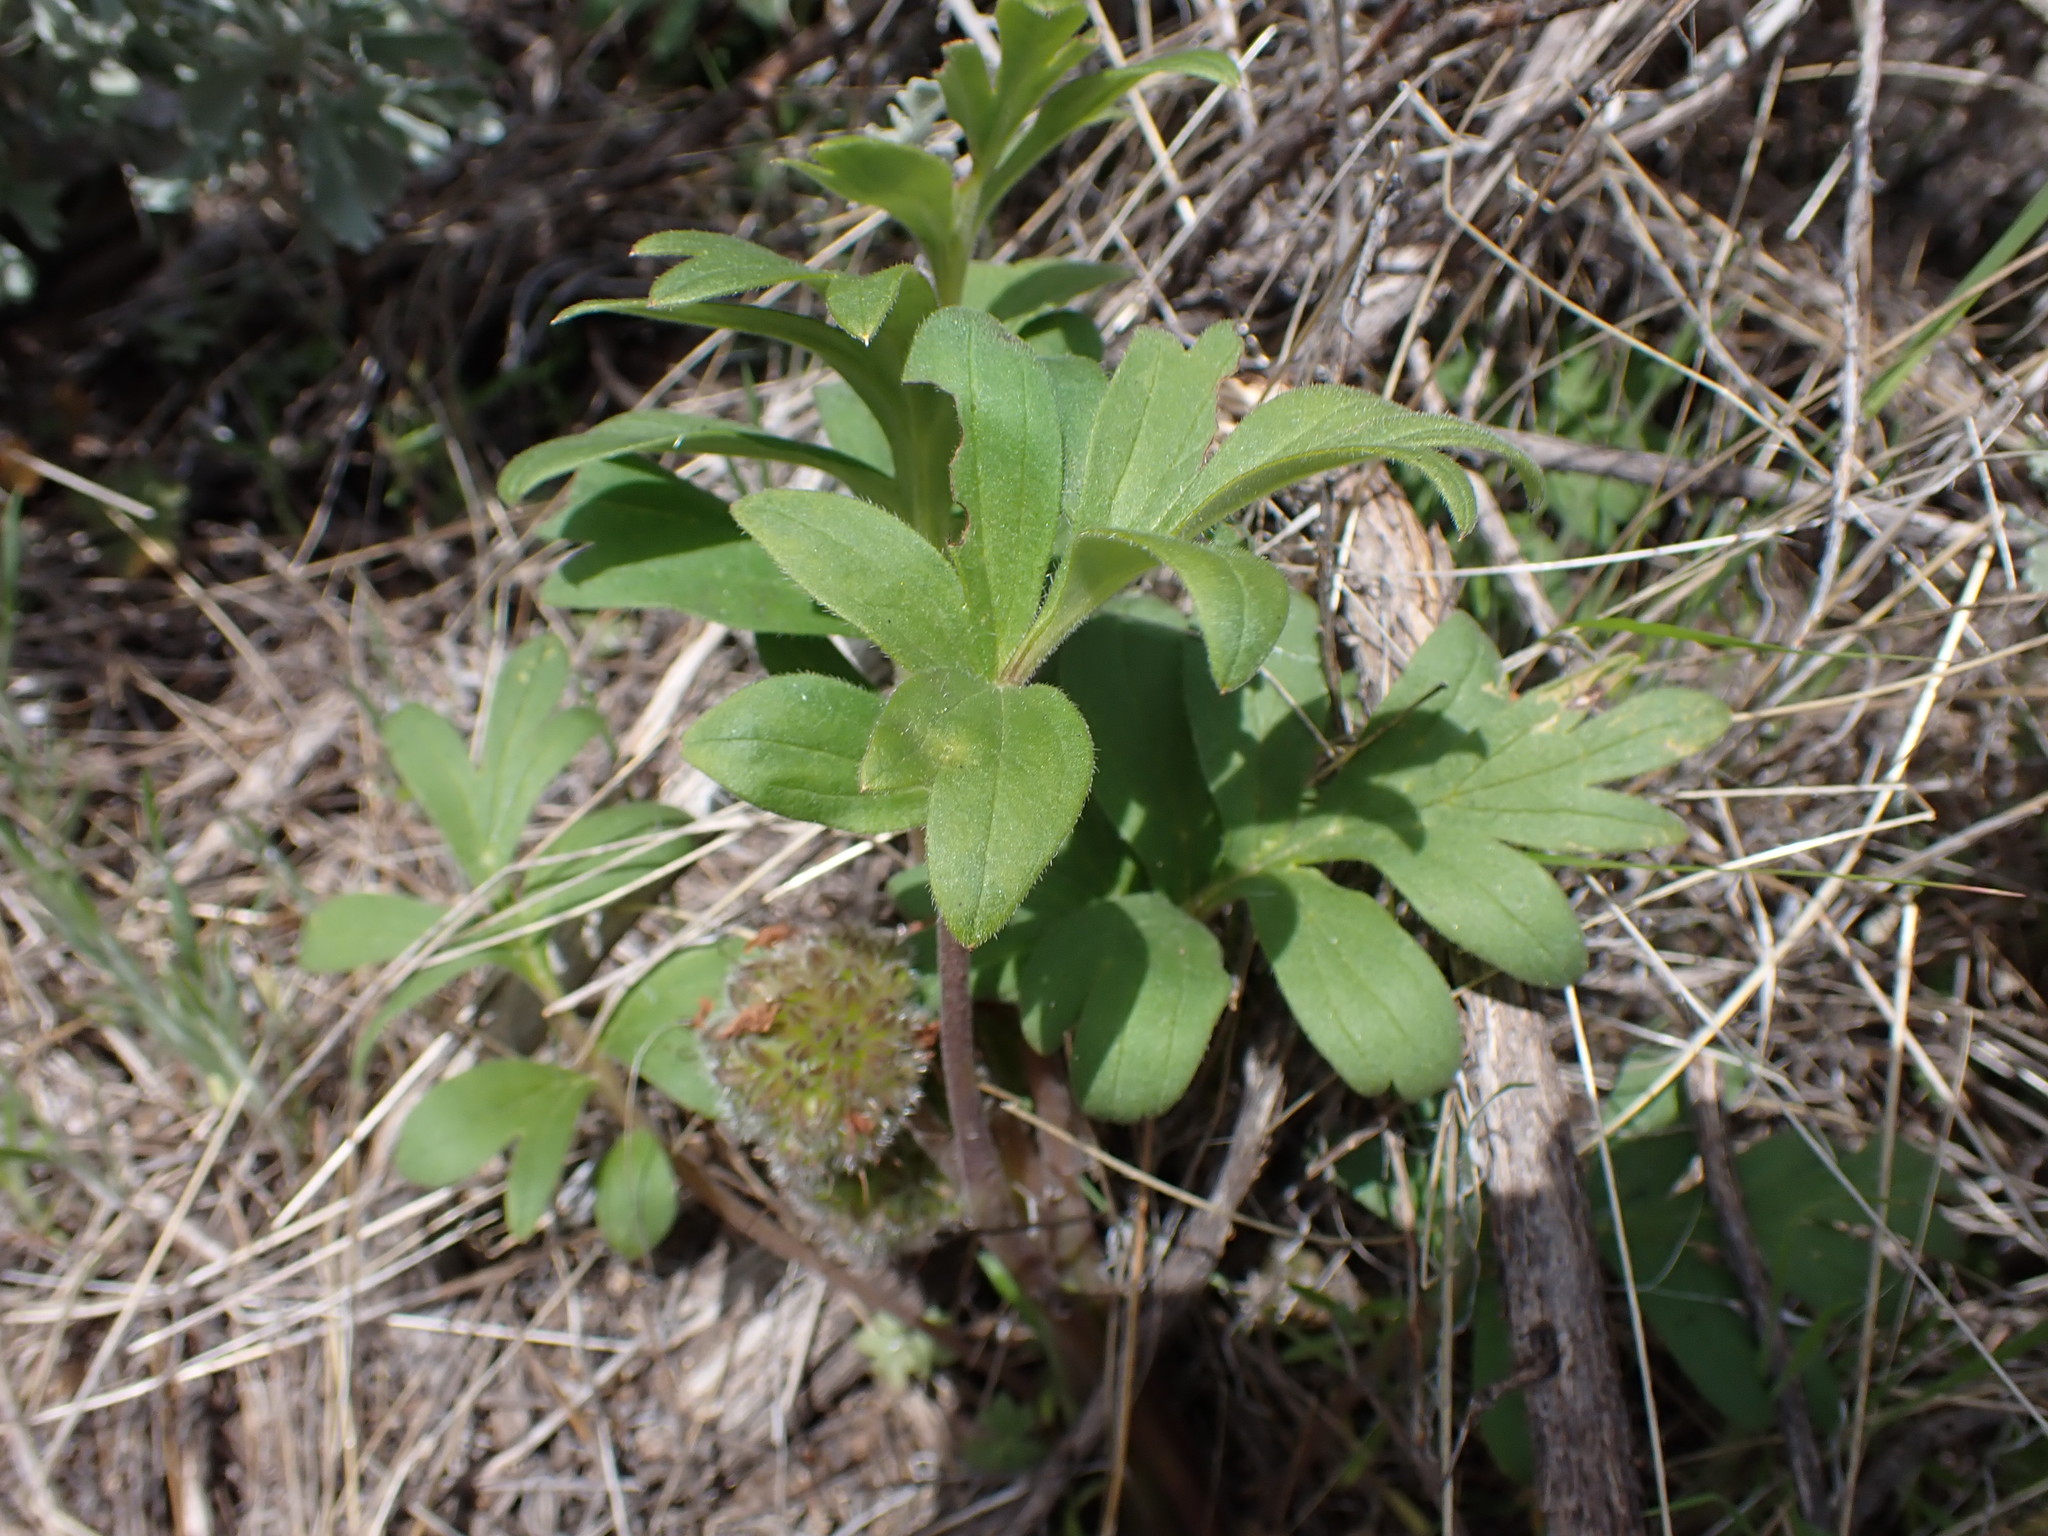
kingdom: Plantae
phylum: Tracheophyta
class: Magnoliopsida
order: Boraginales
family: Hydrophyllaceae
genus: Hydrophyllum
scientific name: Hydrophyllum capitatum
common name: Woollen-breeches
